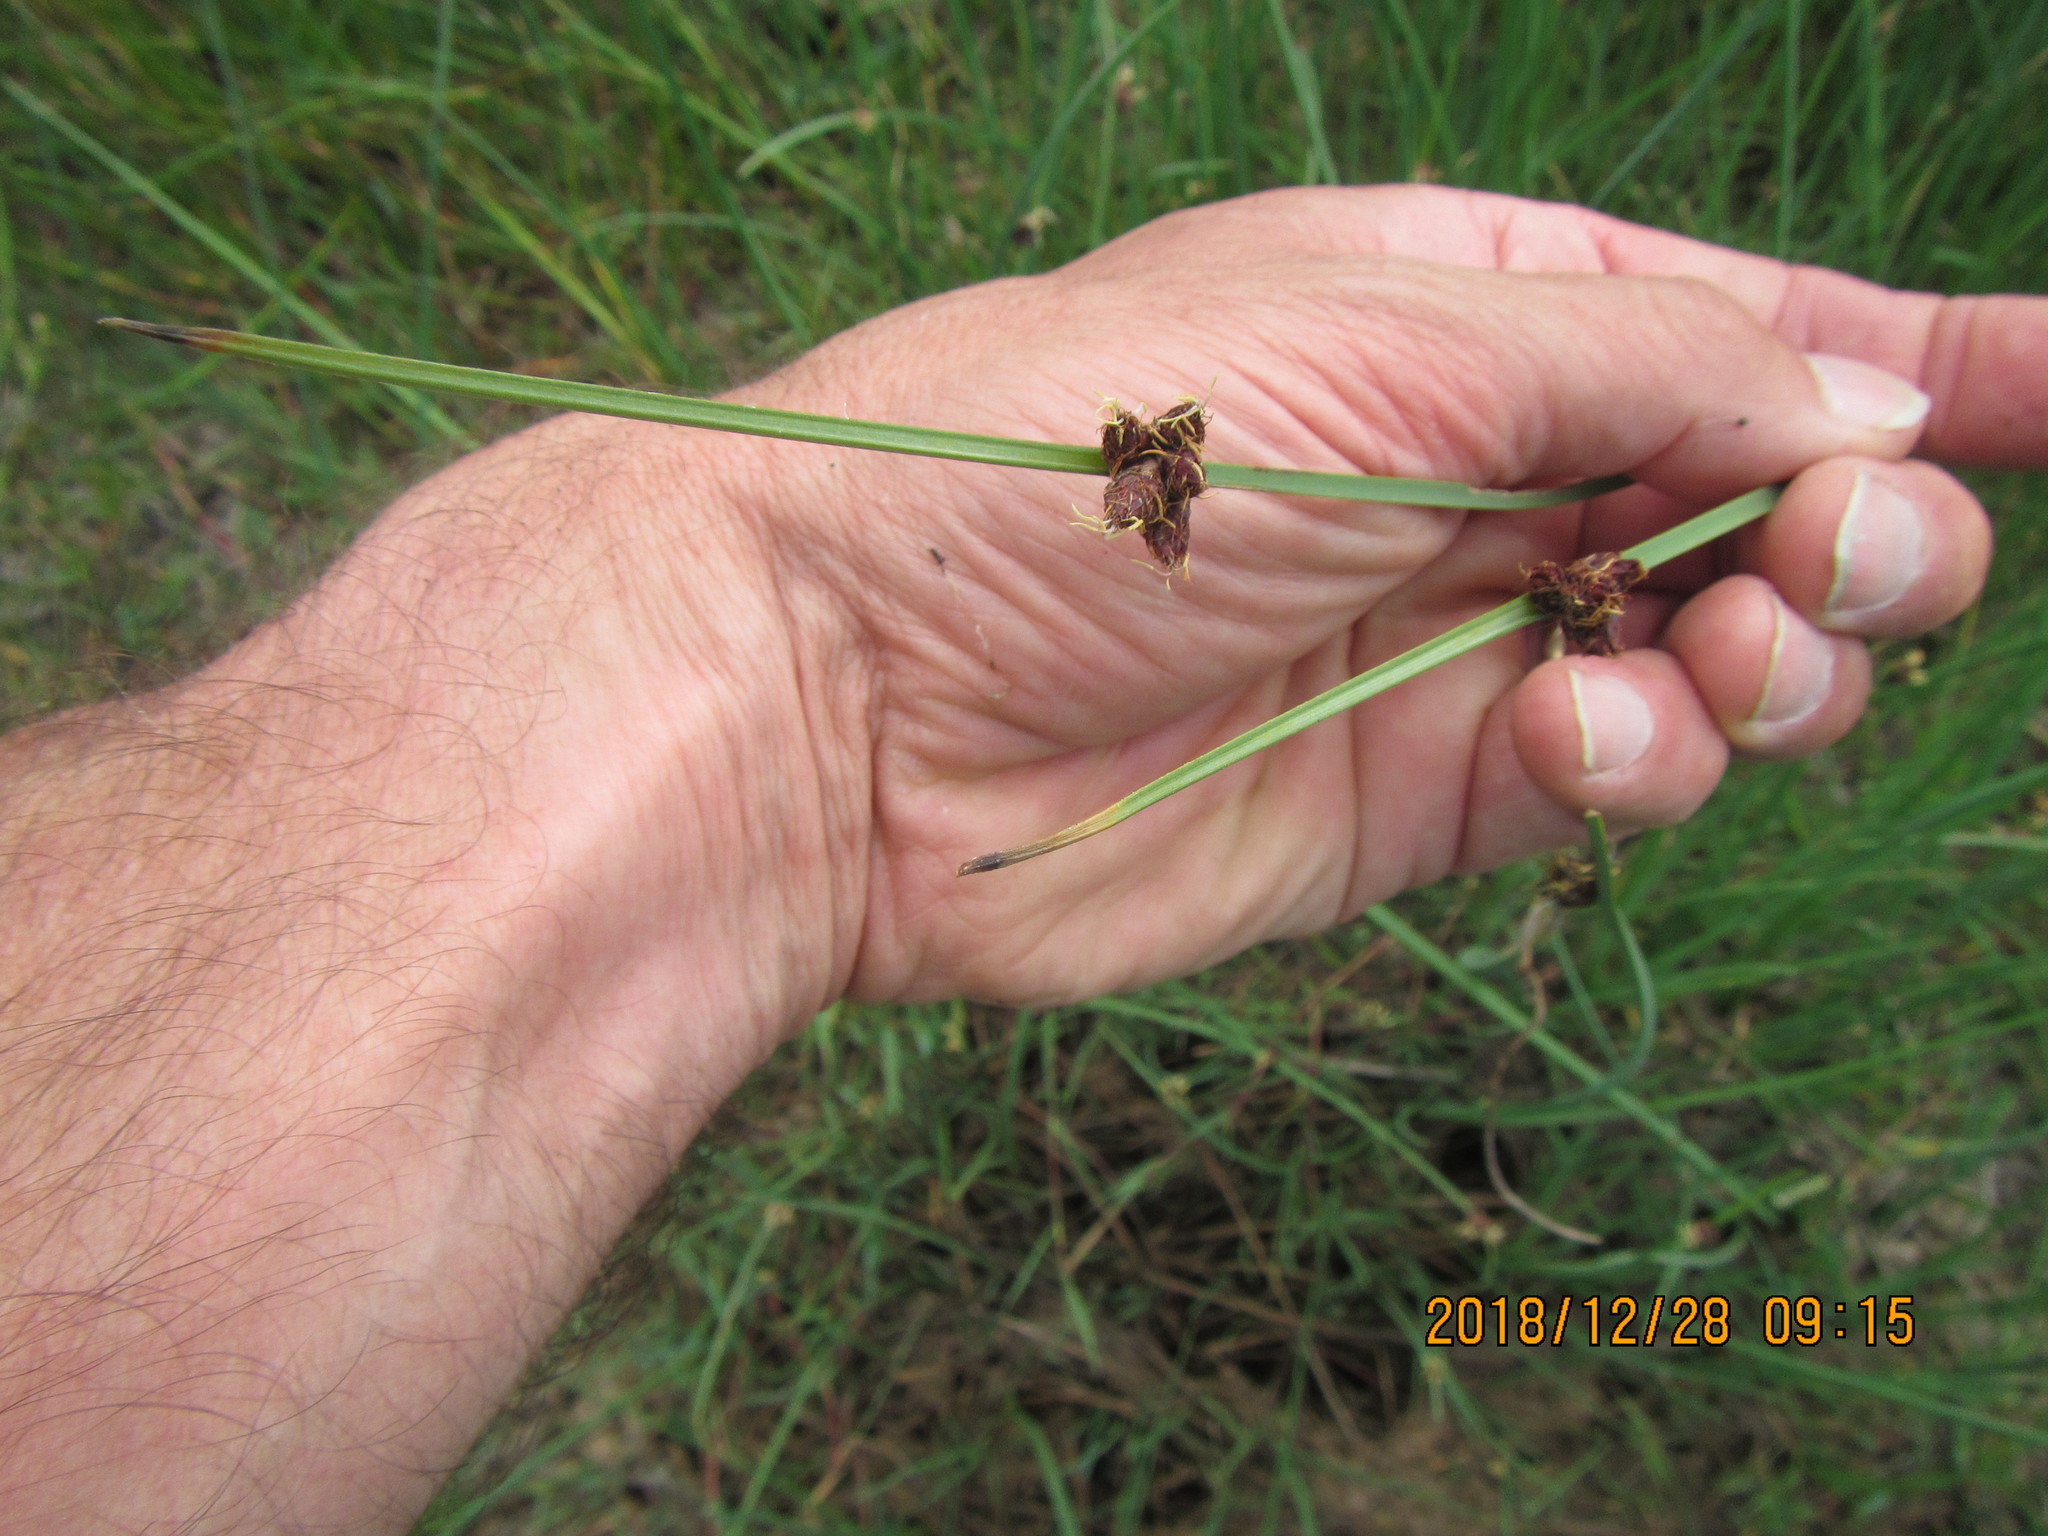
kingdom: Plantae
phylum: Tracheophyta
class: Liliopsida
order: Poales
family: Cyperaceae
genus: Schoenoplectus
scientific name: Schoenoplectus pungens
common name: Sharp club-rush
